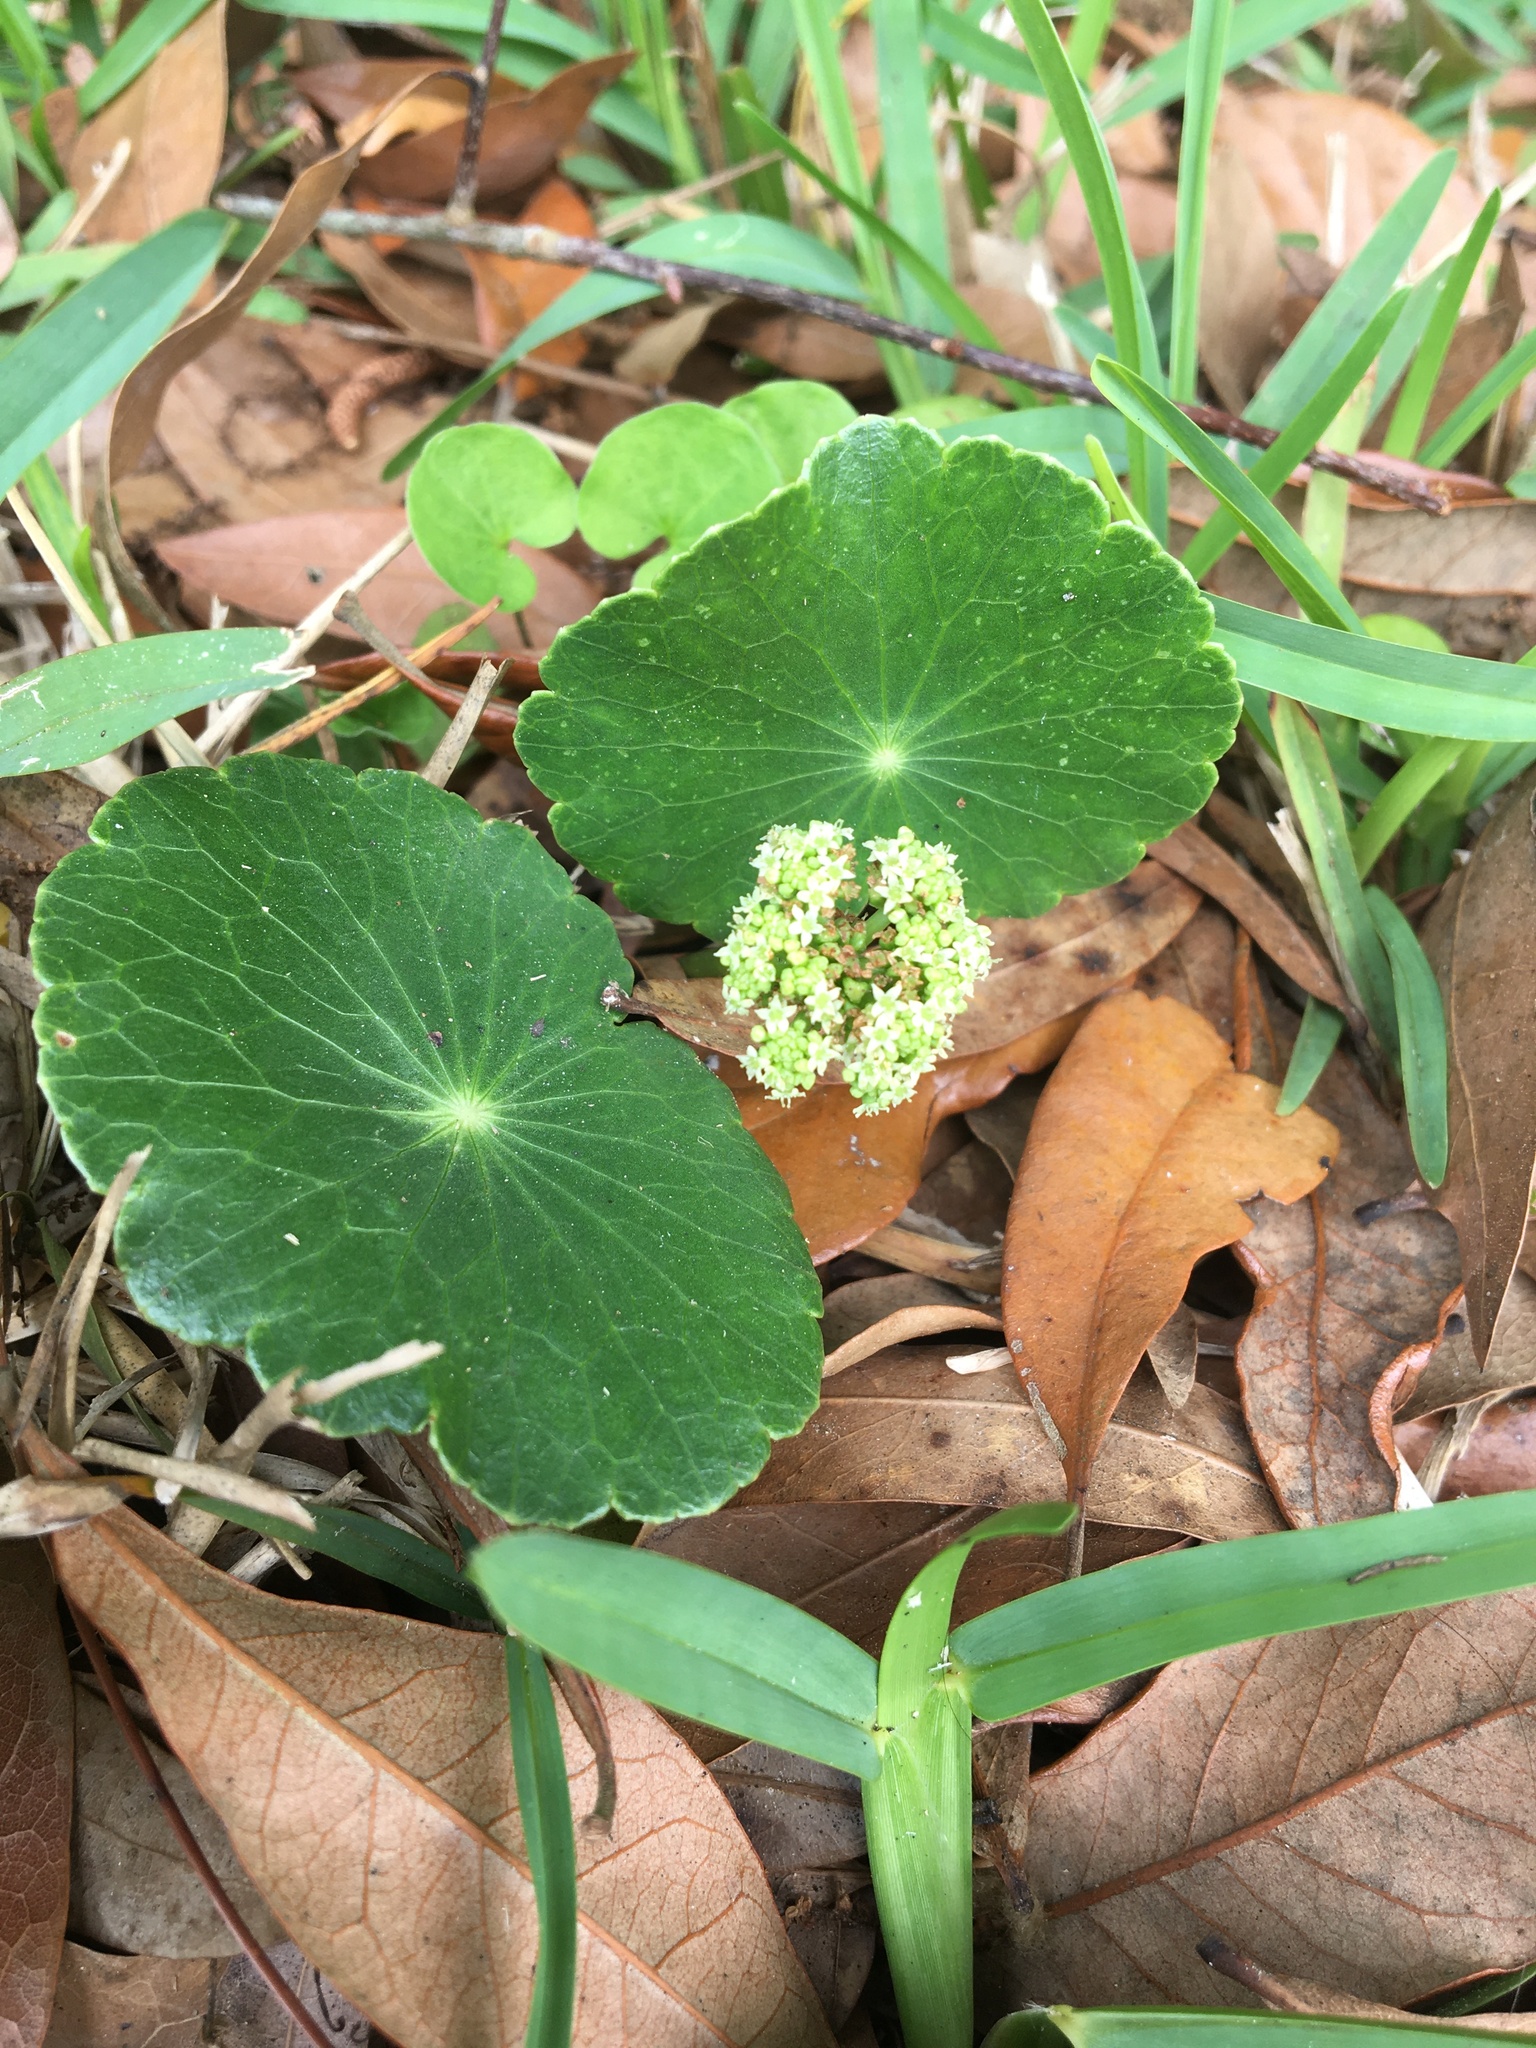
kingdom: Plantae
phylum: Tracheophyta
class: Magnoliopsida
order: Apiales
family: Araliaceae
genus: Hydrocotyle
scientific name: Hydrocotyle bonariensis
